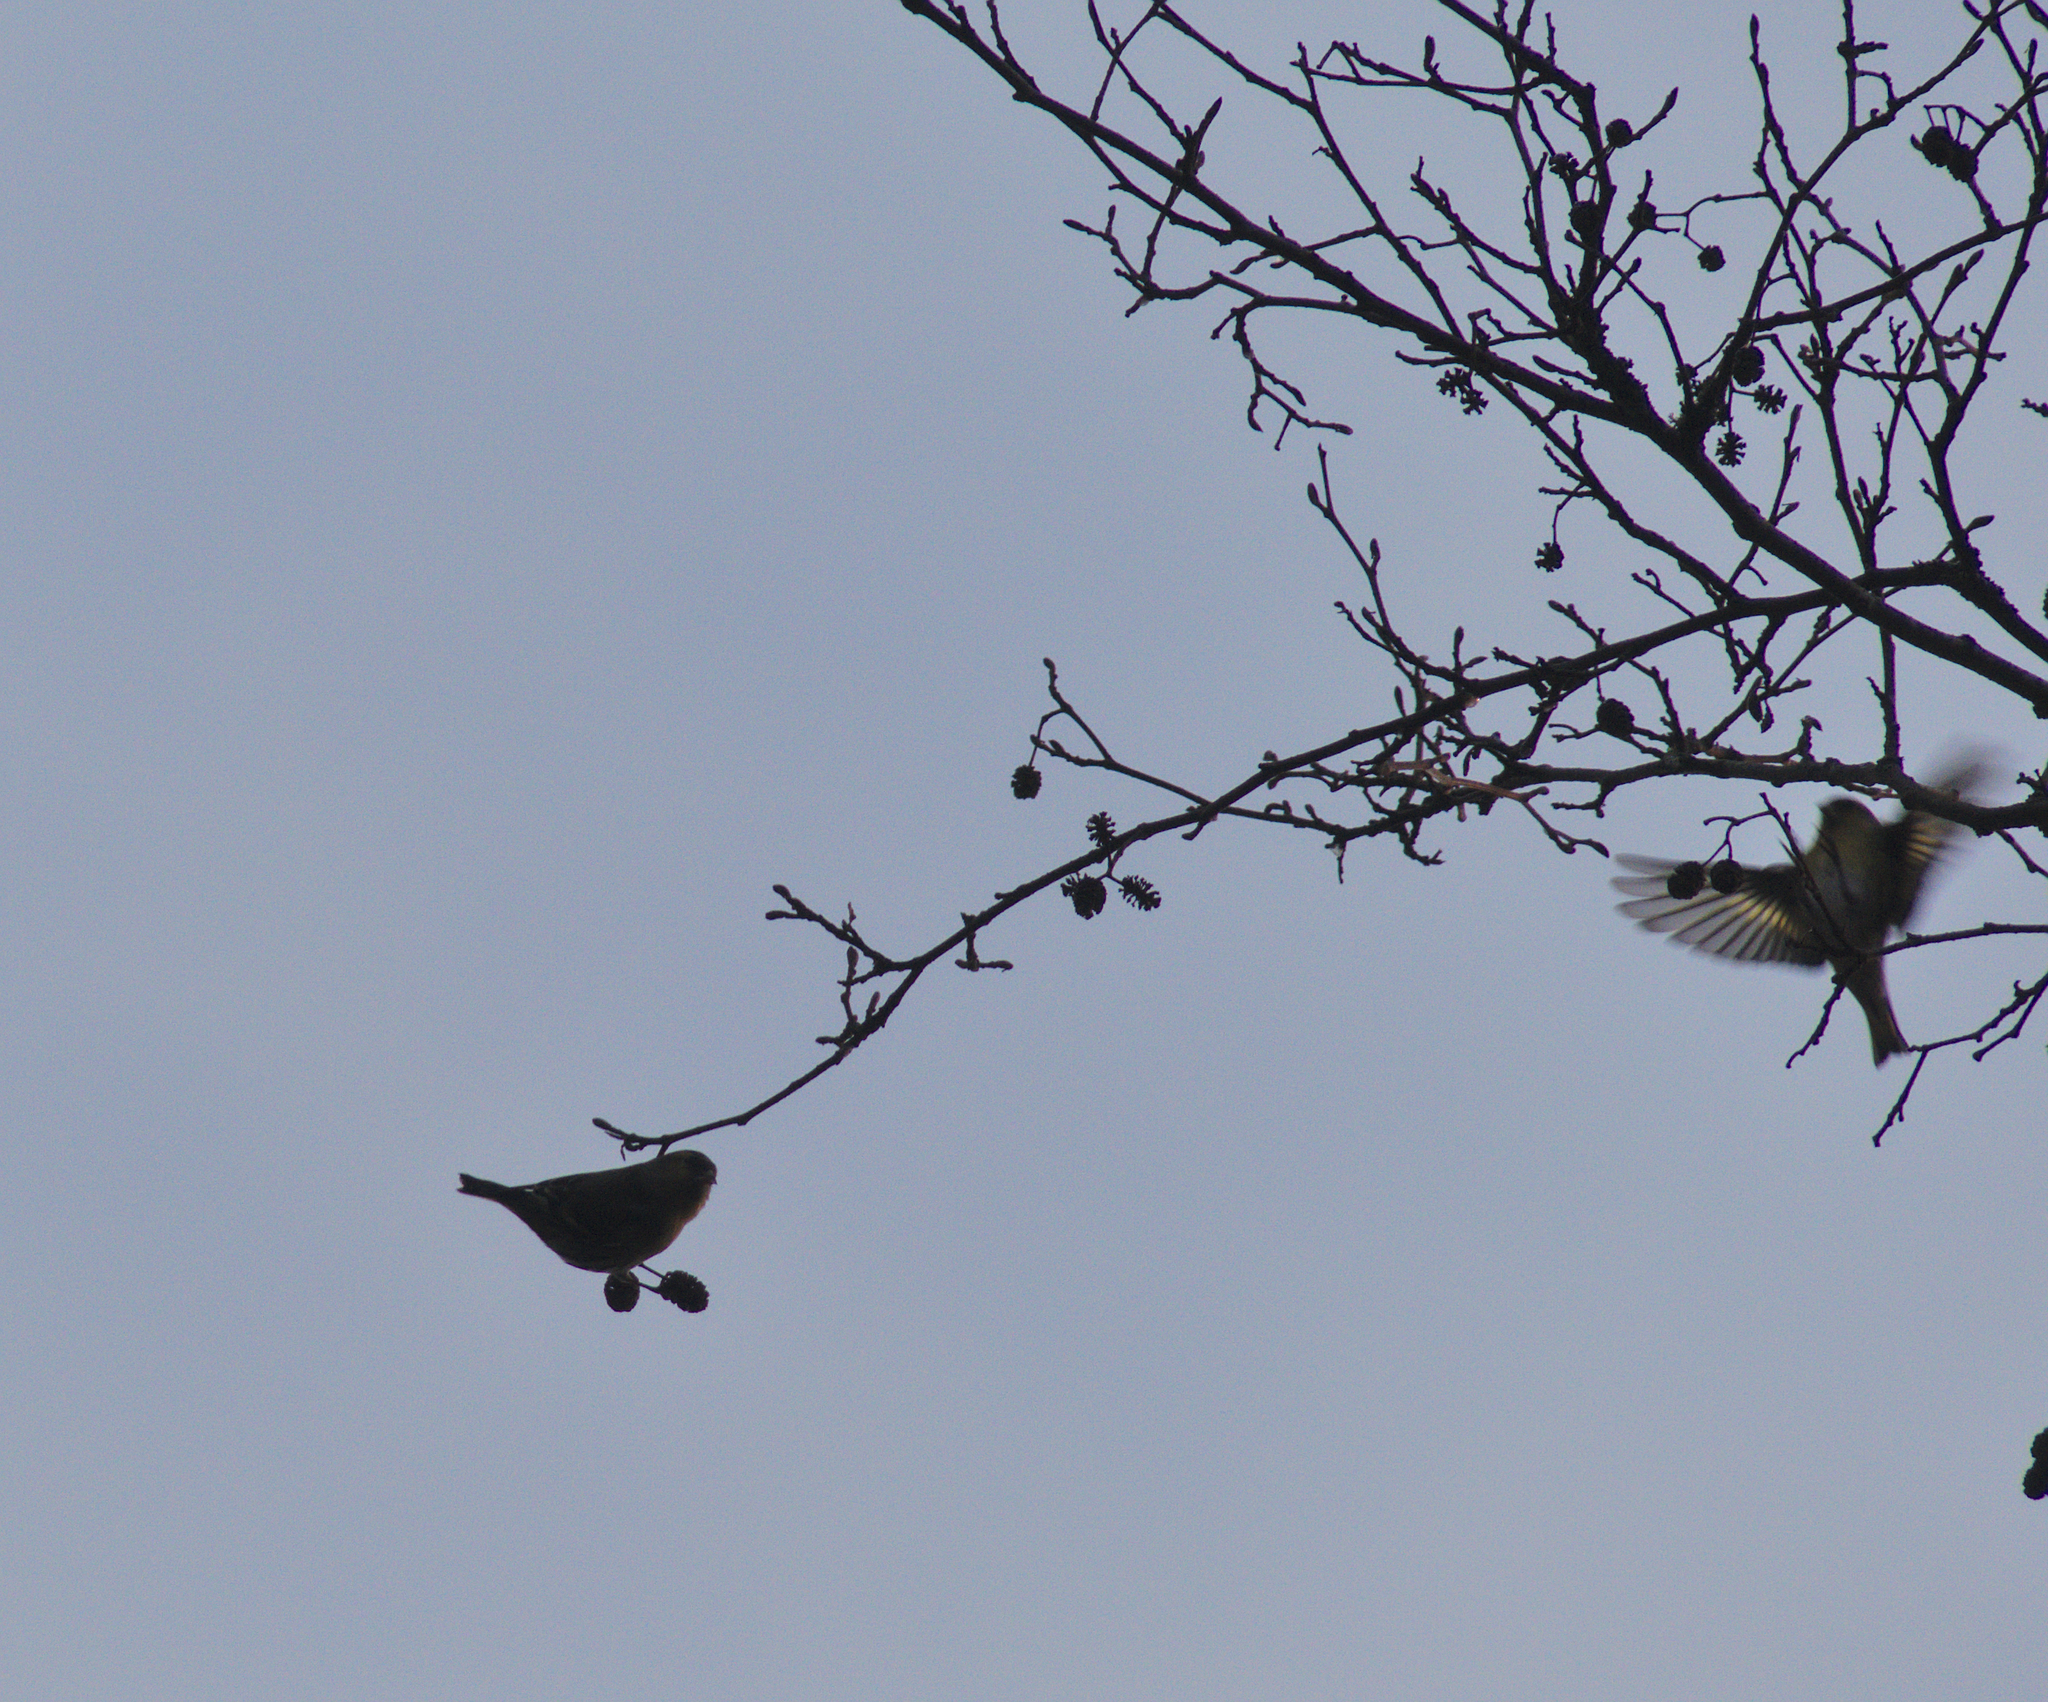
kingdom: Animalia
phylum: Chordata
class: Aves
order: Passeriformes
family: Fringillidae
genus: Spinus
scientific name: Spinus spinus
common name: Eurasian siskin
